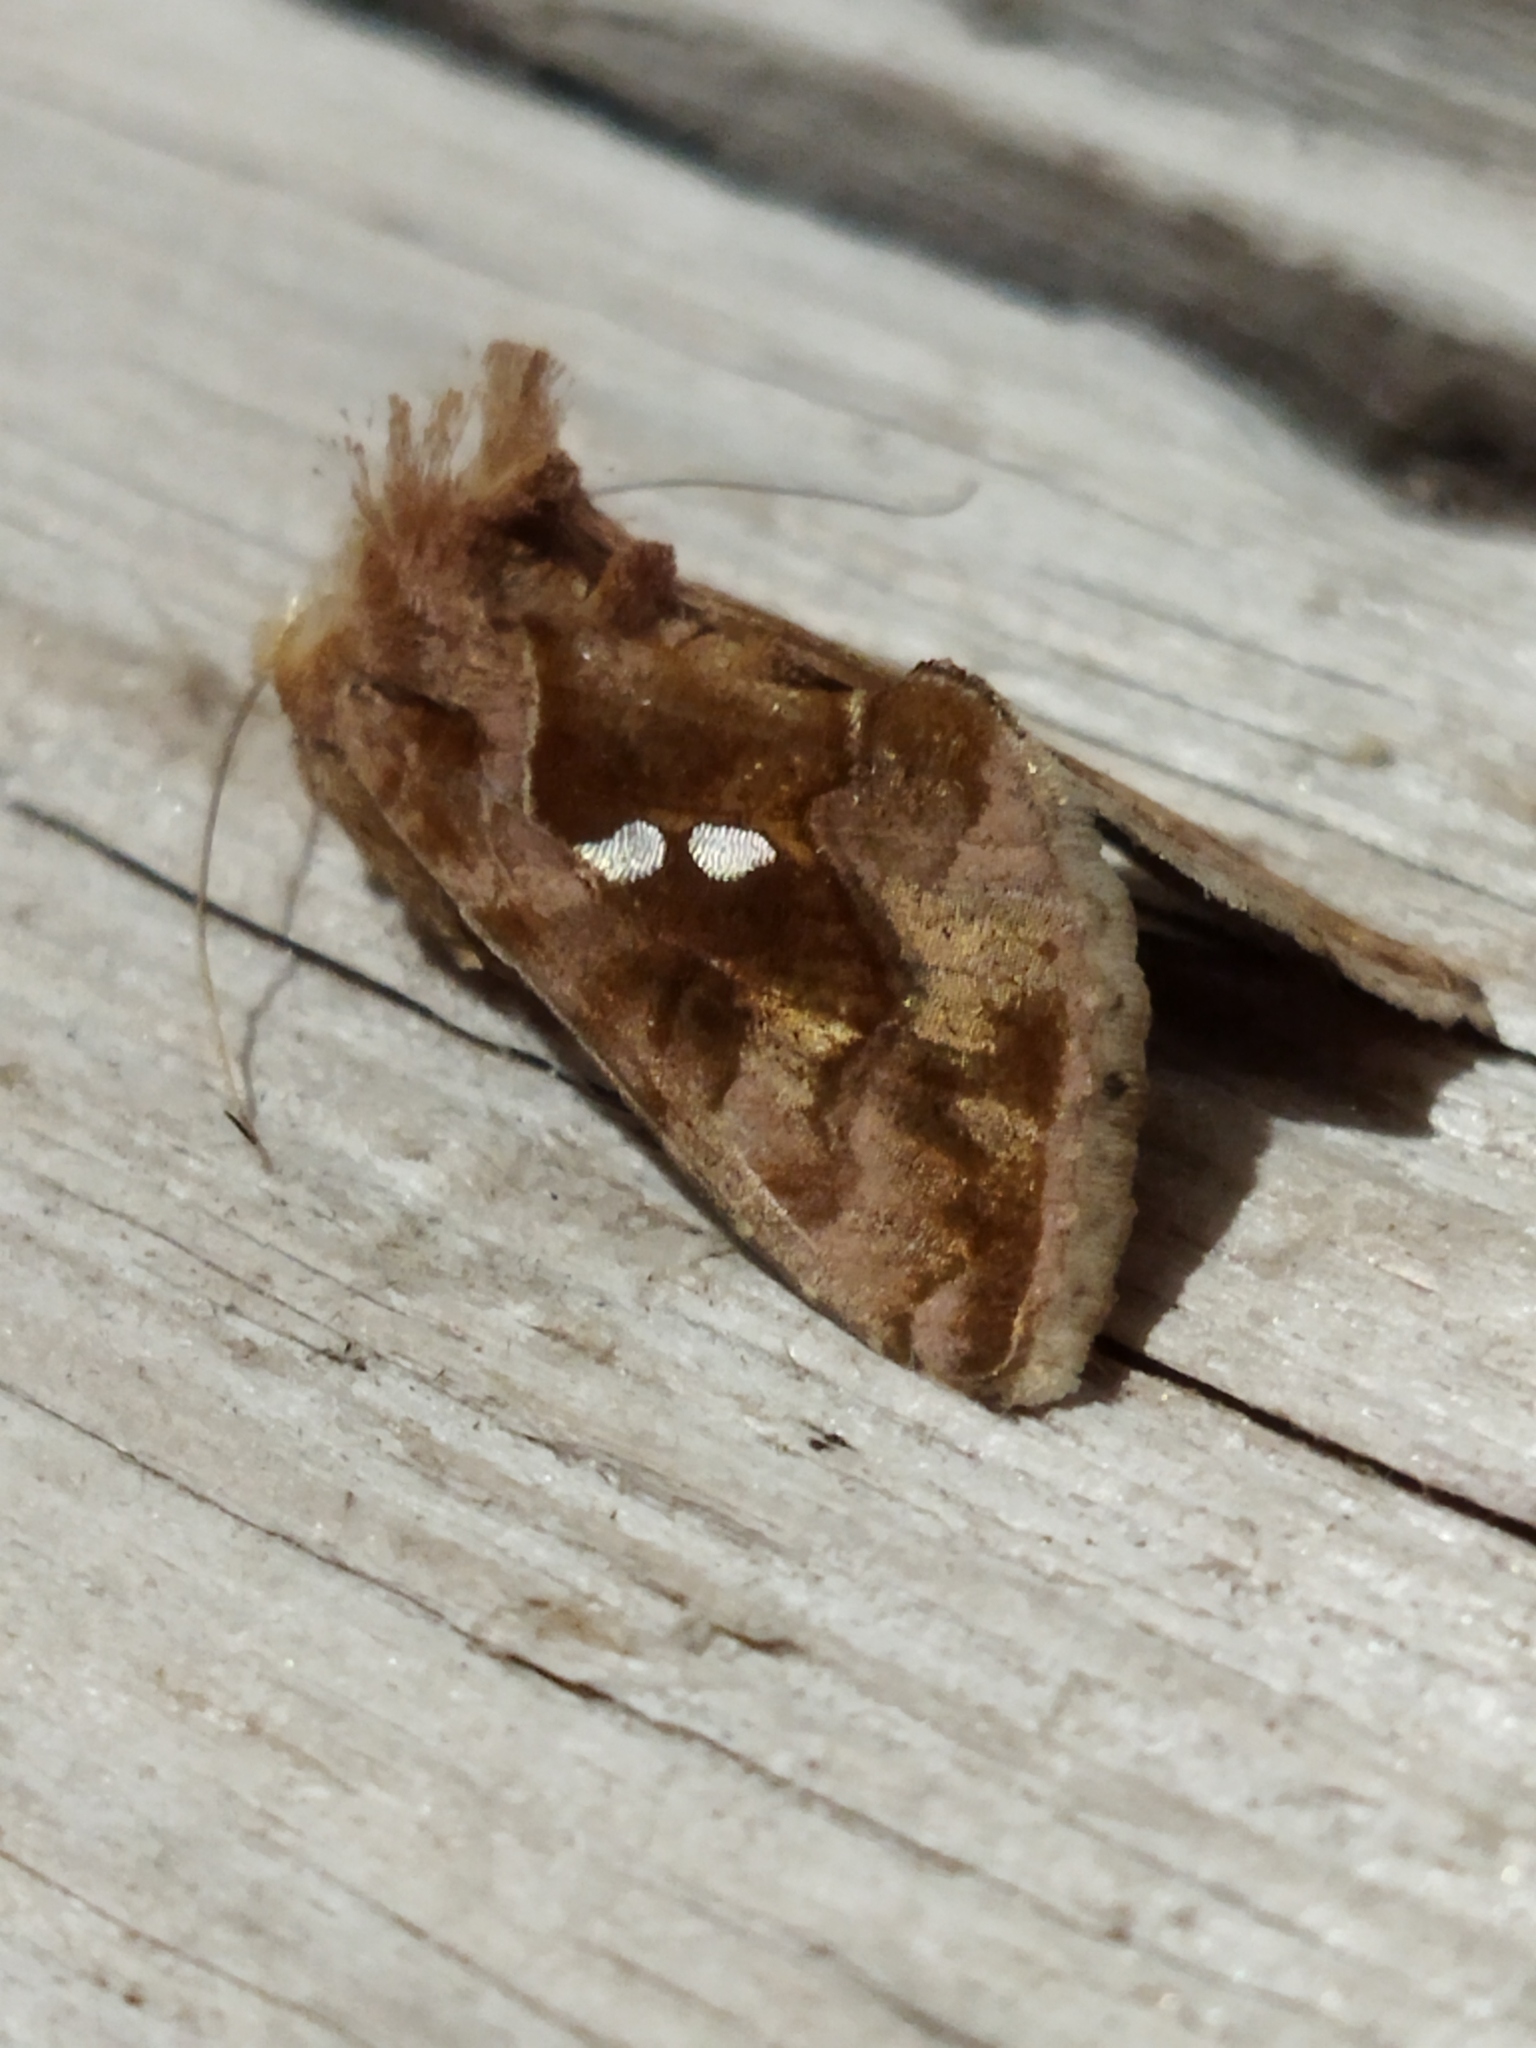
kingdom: Animalia
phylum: Arthropoda
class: Insecta
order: Lepidoptera
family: Noctuidae
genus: Chrysodeixis
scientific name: Chrysodeixis chalcites
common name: Golden twin-spot
